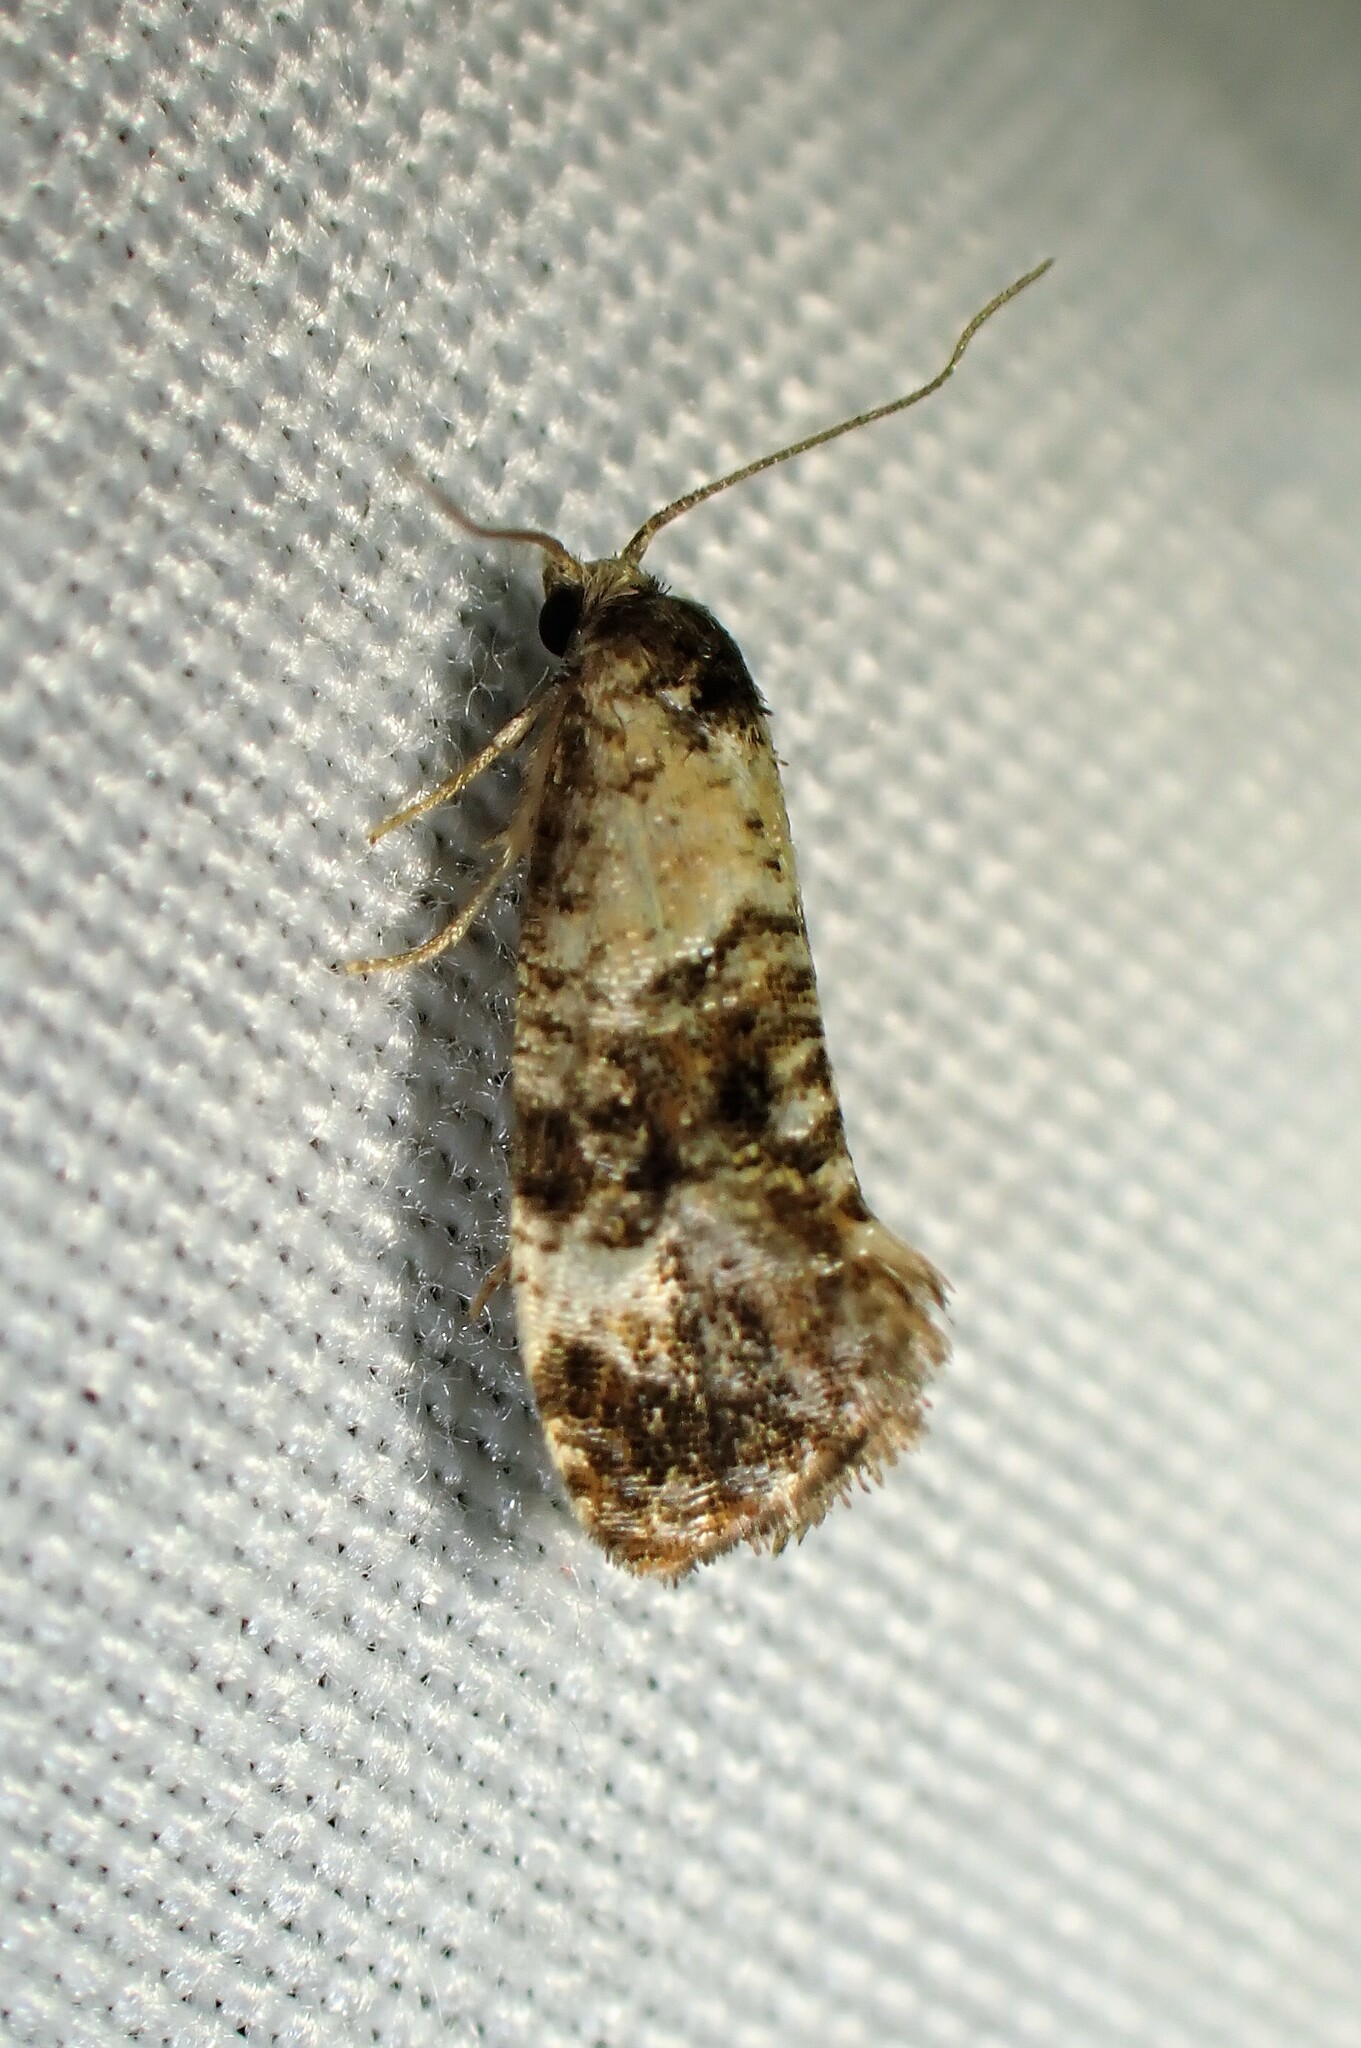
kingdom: Animalia
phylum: Arthropoda
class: Insecta
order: Lepidoptera
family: Tortricidae
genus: Cochylis
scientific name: Cochylis Cochylichroa hoffmanana
